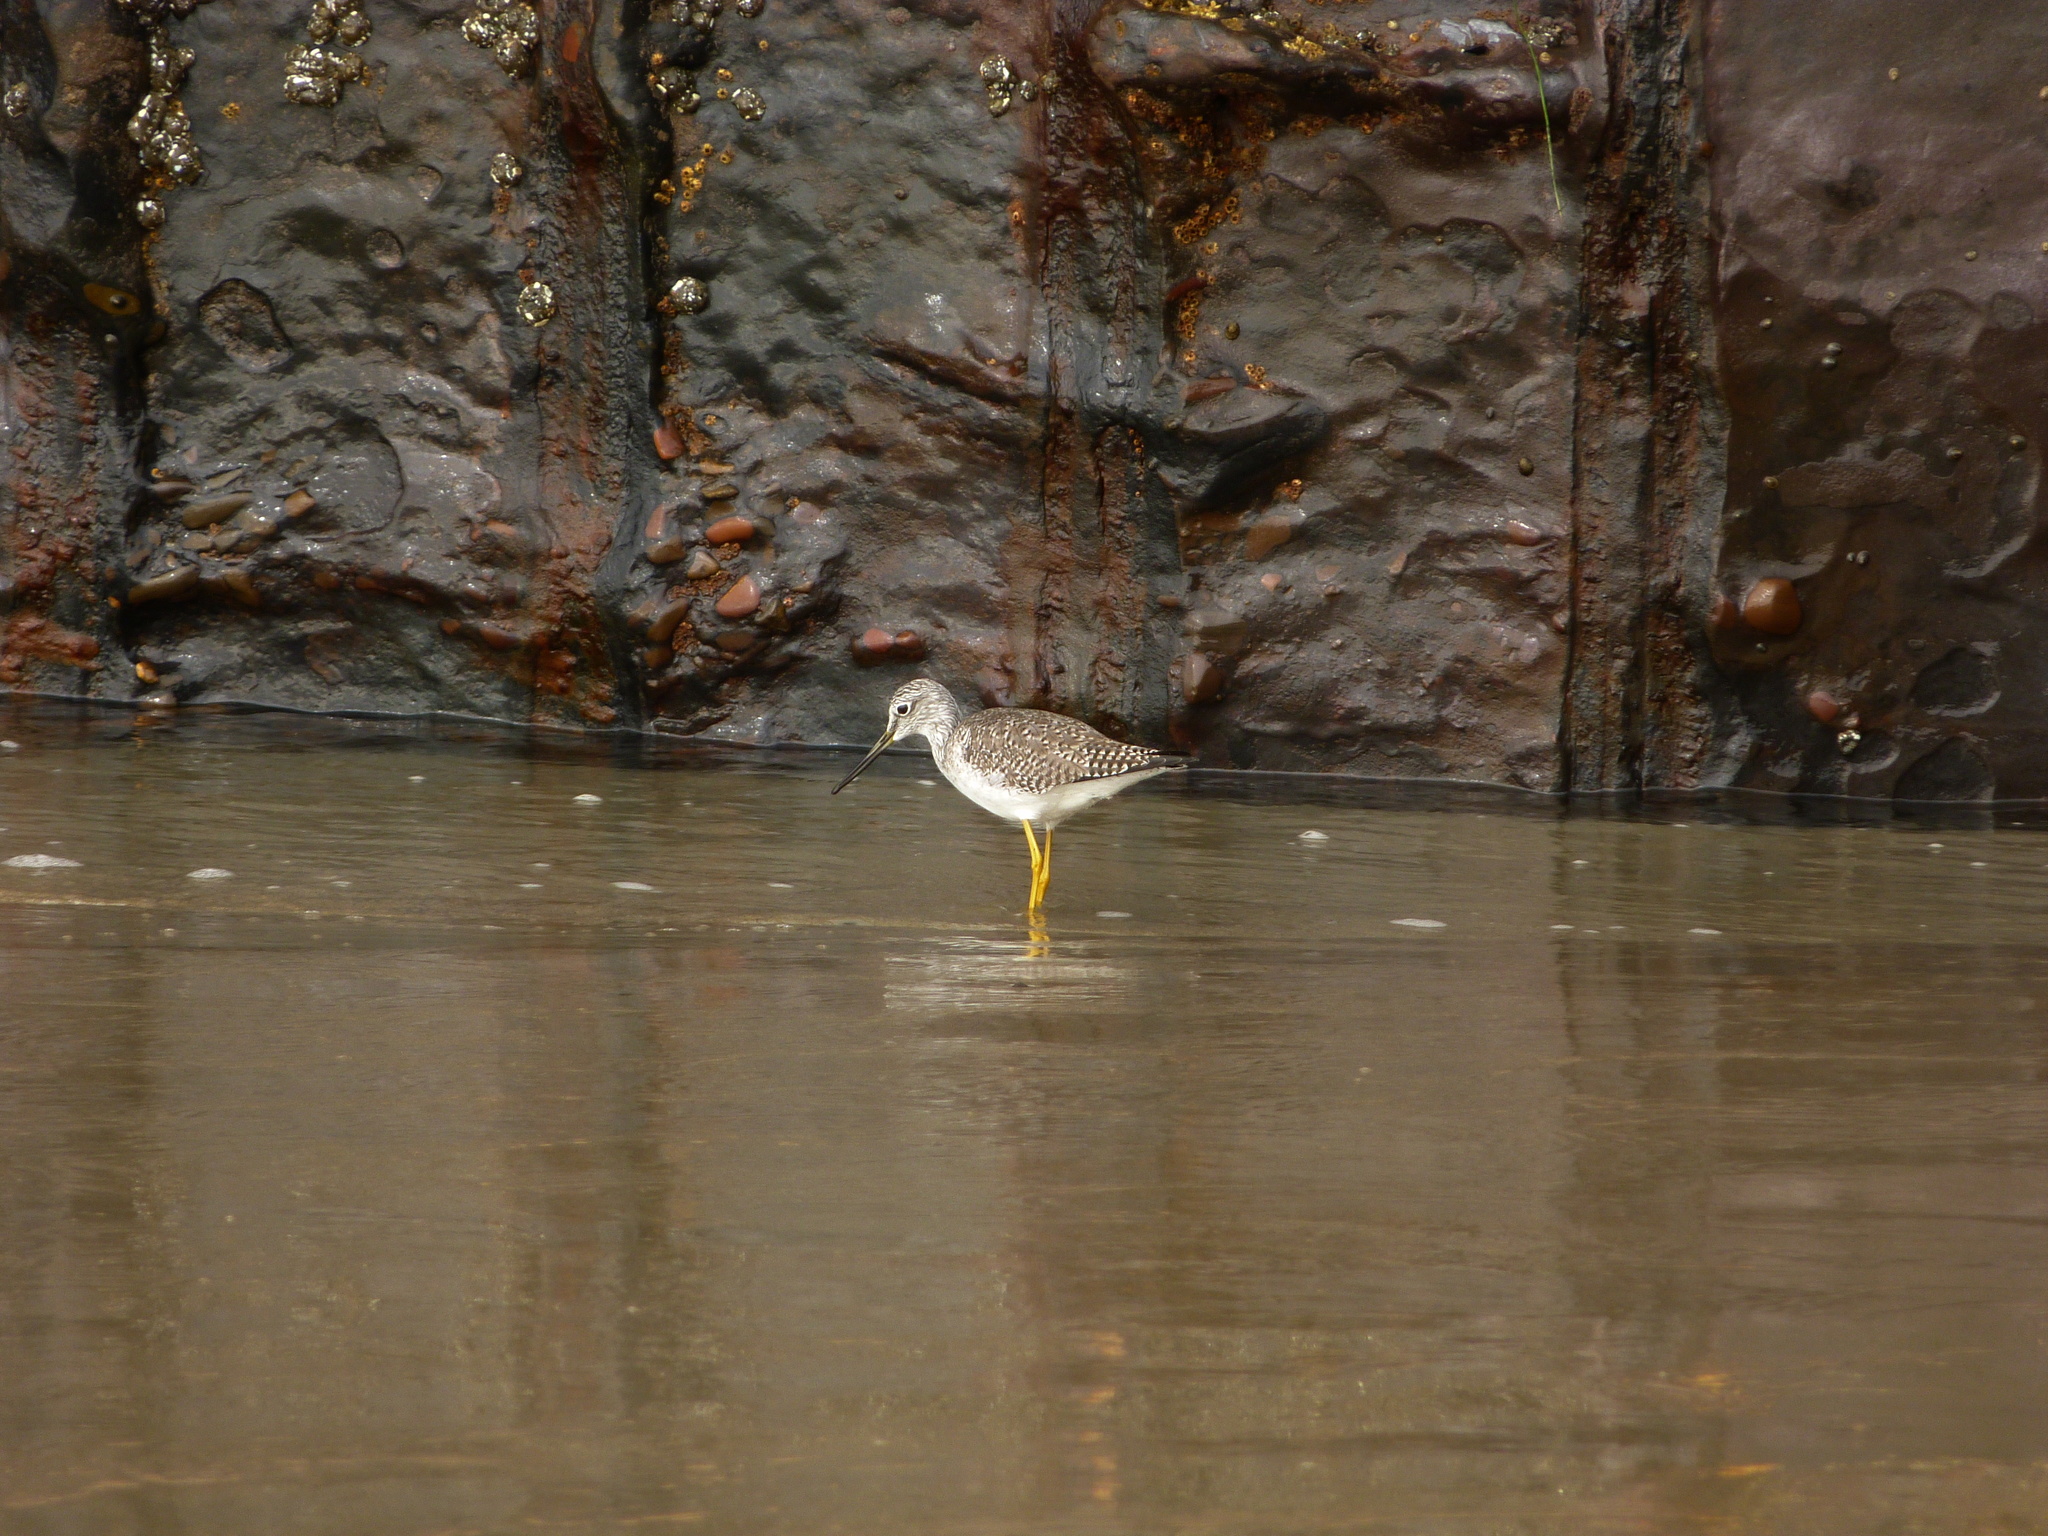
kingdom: Animalia
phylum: Chordata
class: Aves
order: Charadriiformes
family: Scolopacidae
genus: Tringa
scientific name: Tringa melanoleuca
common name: Greater yellowlegs
